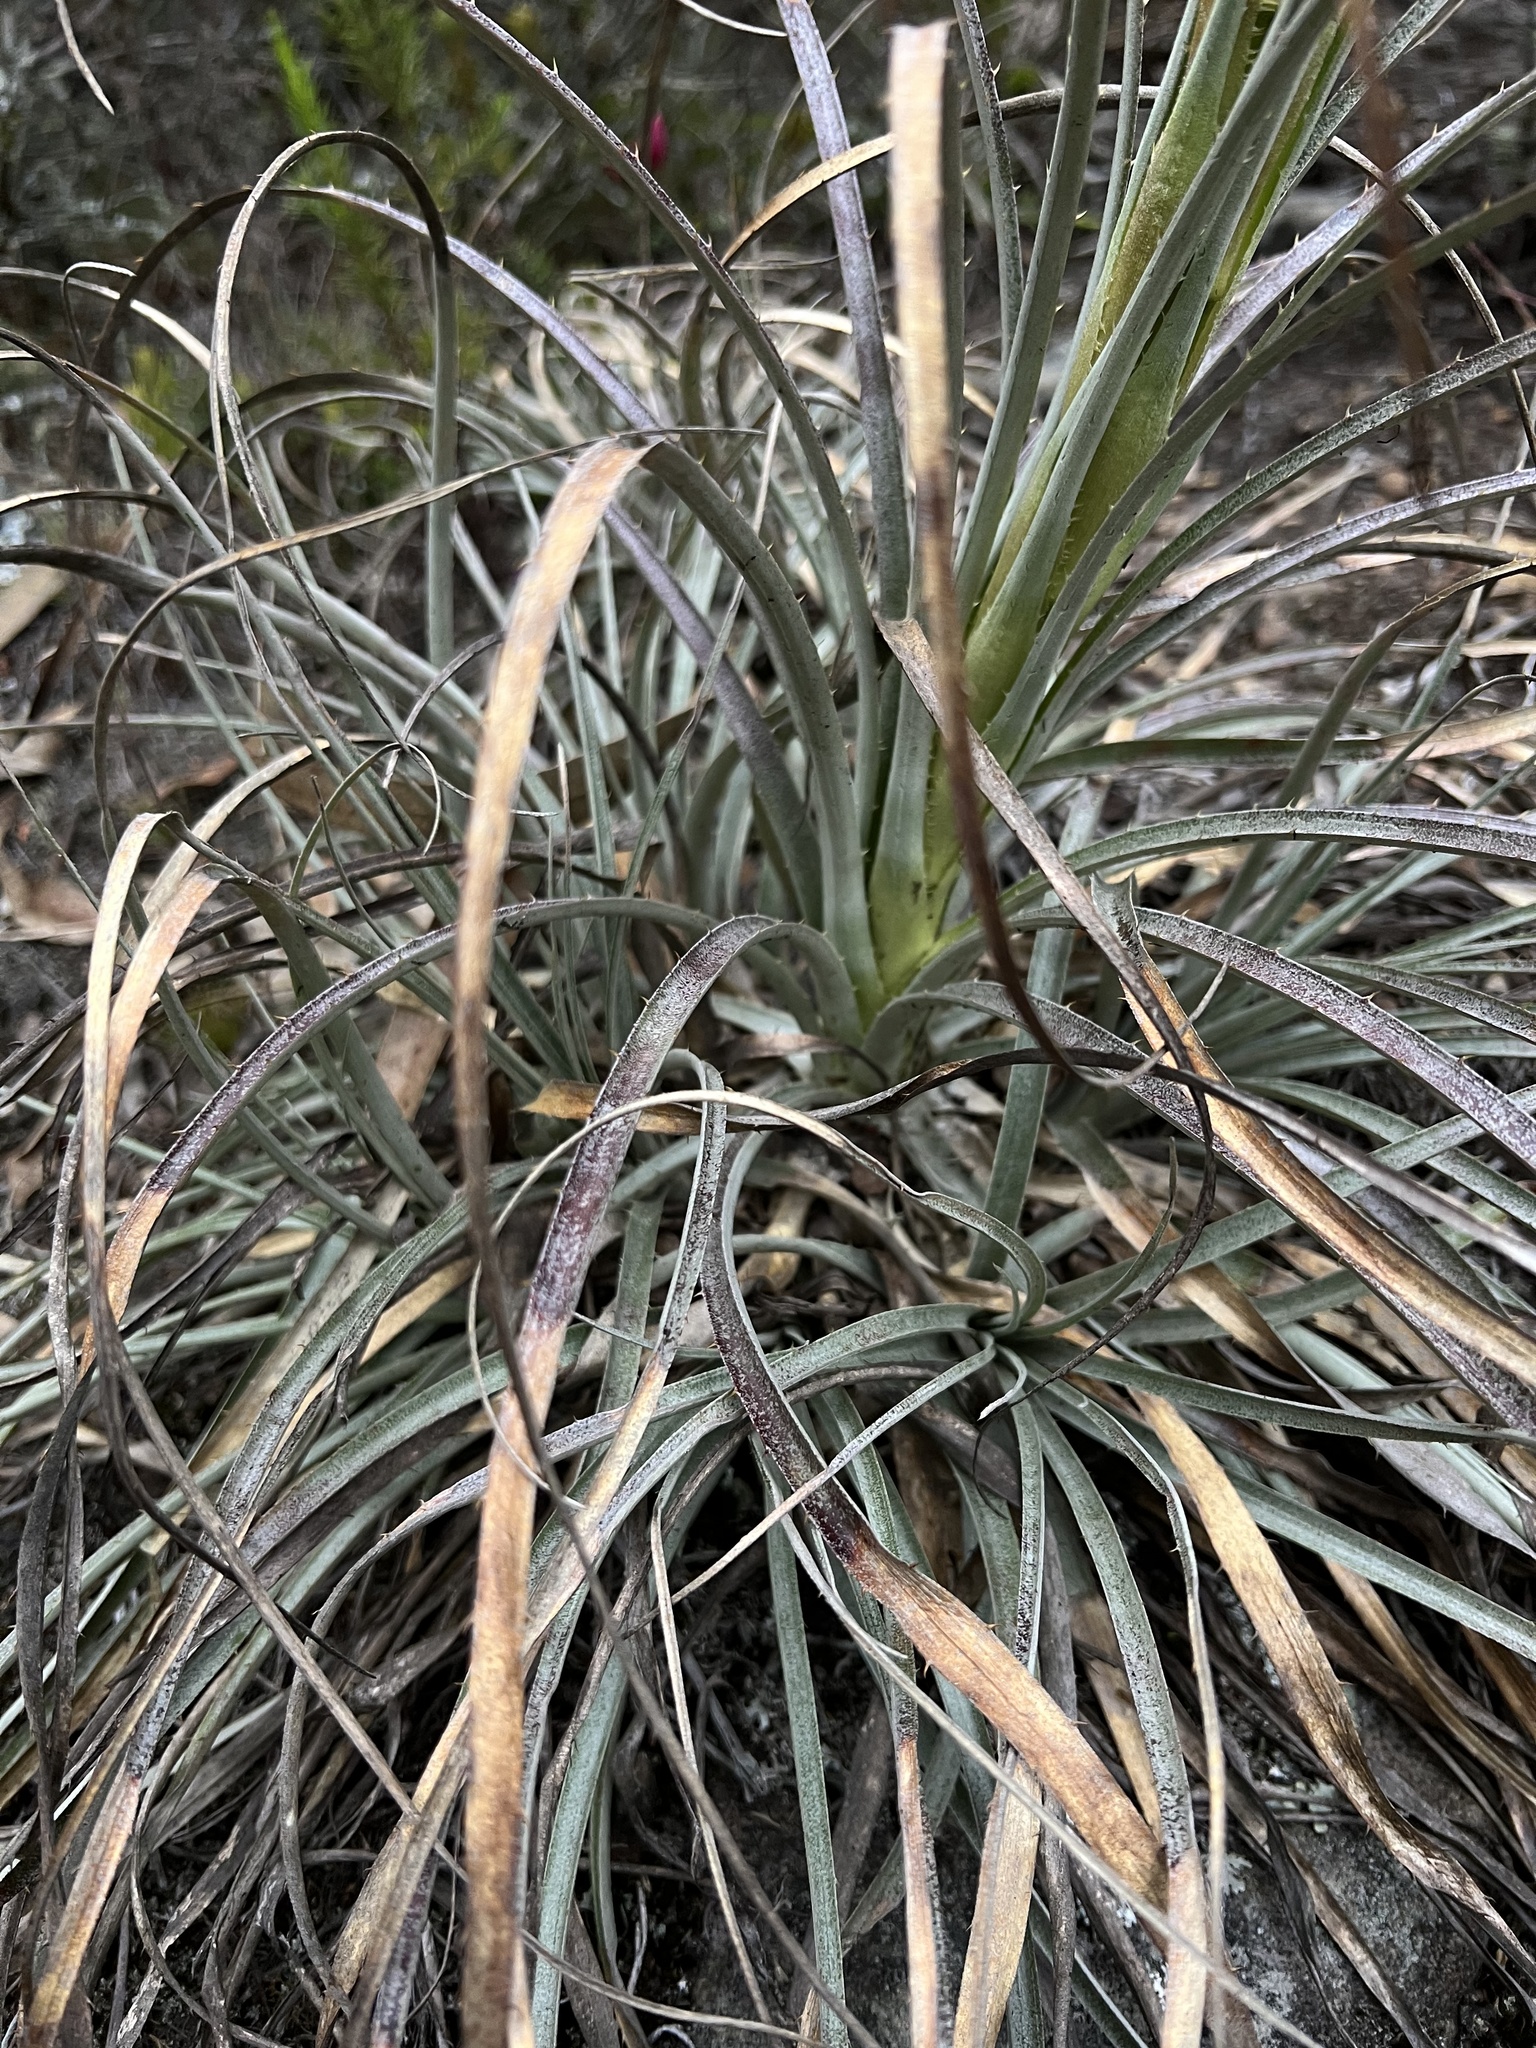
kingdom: Plantae
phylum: Tracheophyta
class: Liliopsida
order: Poales
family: Bromeliaceae
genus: Puya
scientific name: Puya lineata
